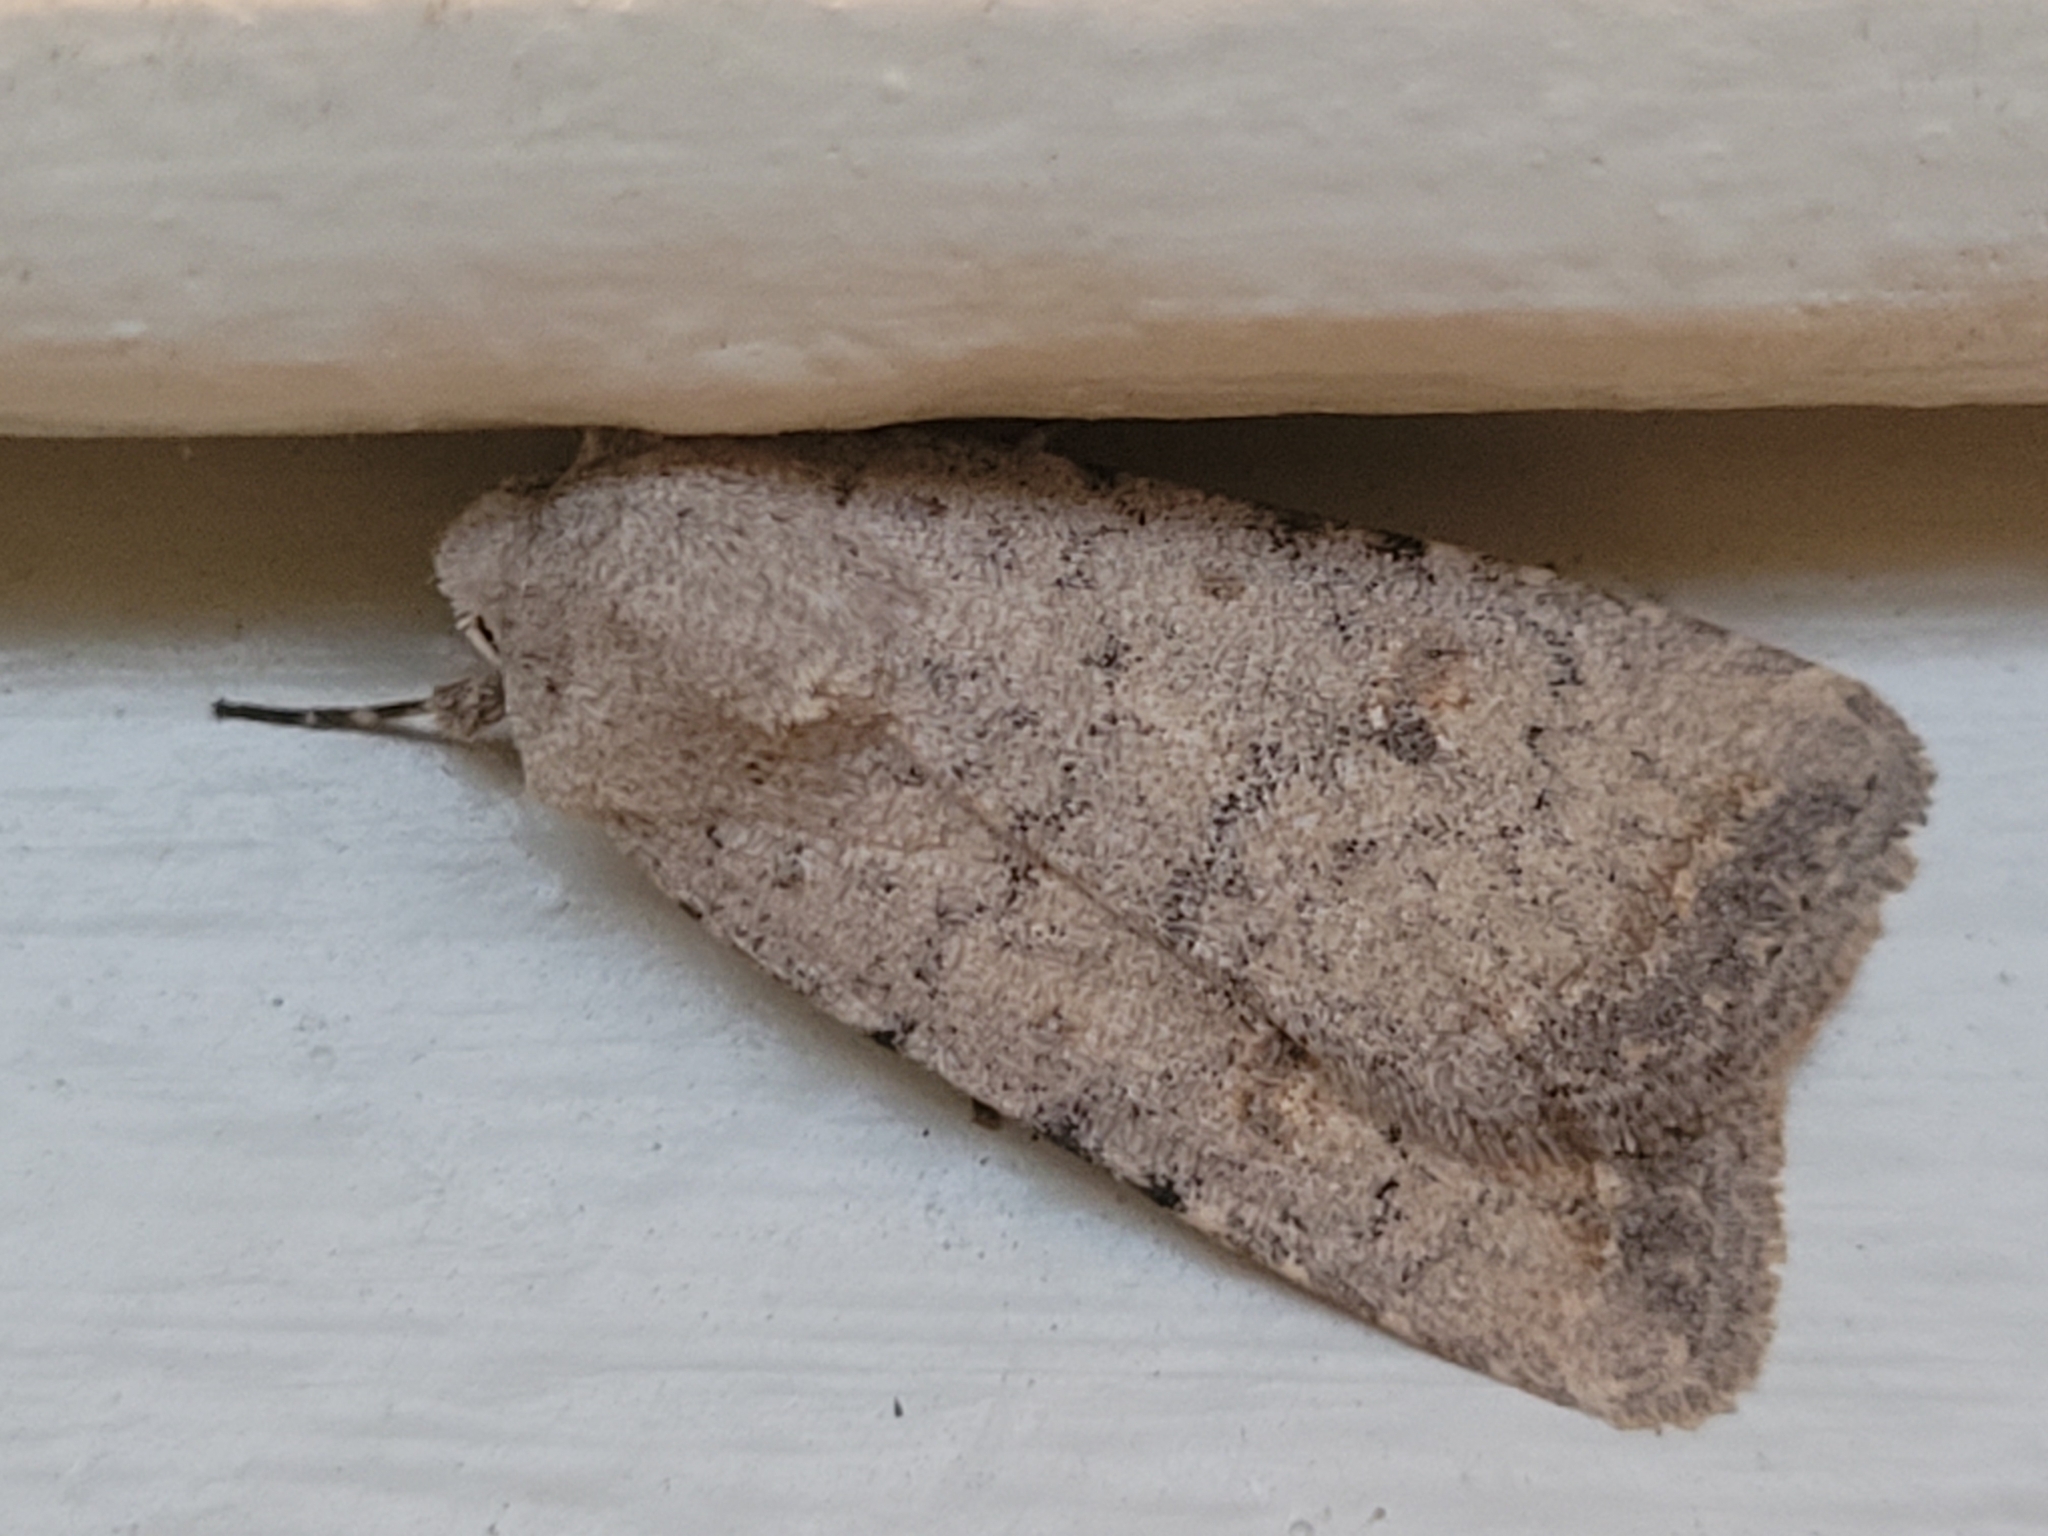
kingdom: Animalia
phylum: Arthropoda
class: Insecta
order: Lepidoptera
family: Noctuidae
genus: Caradrina
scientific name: Caradrina montana
